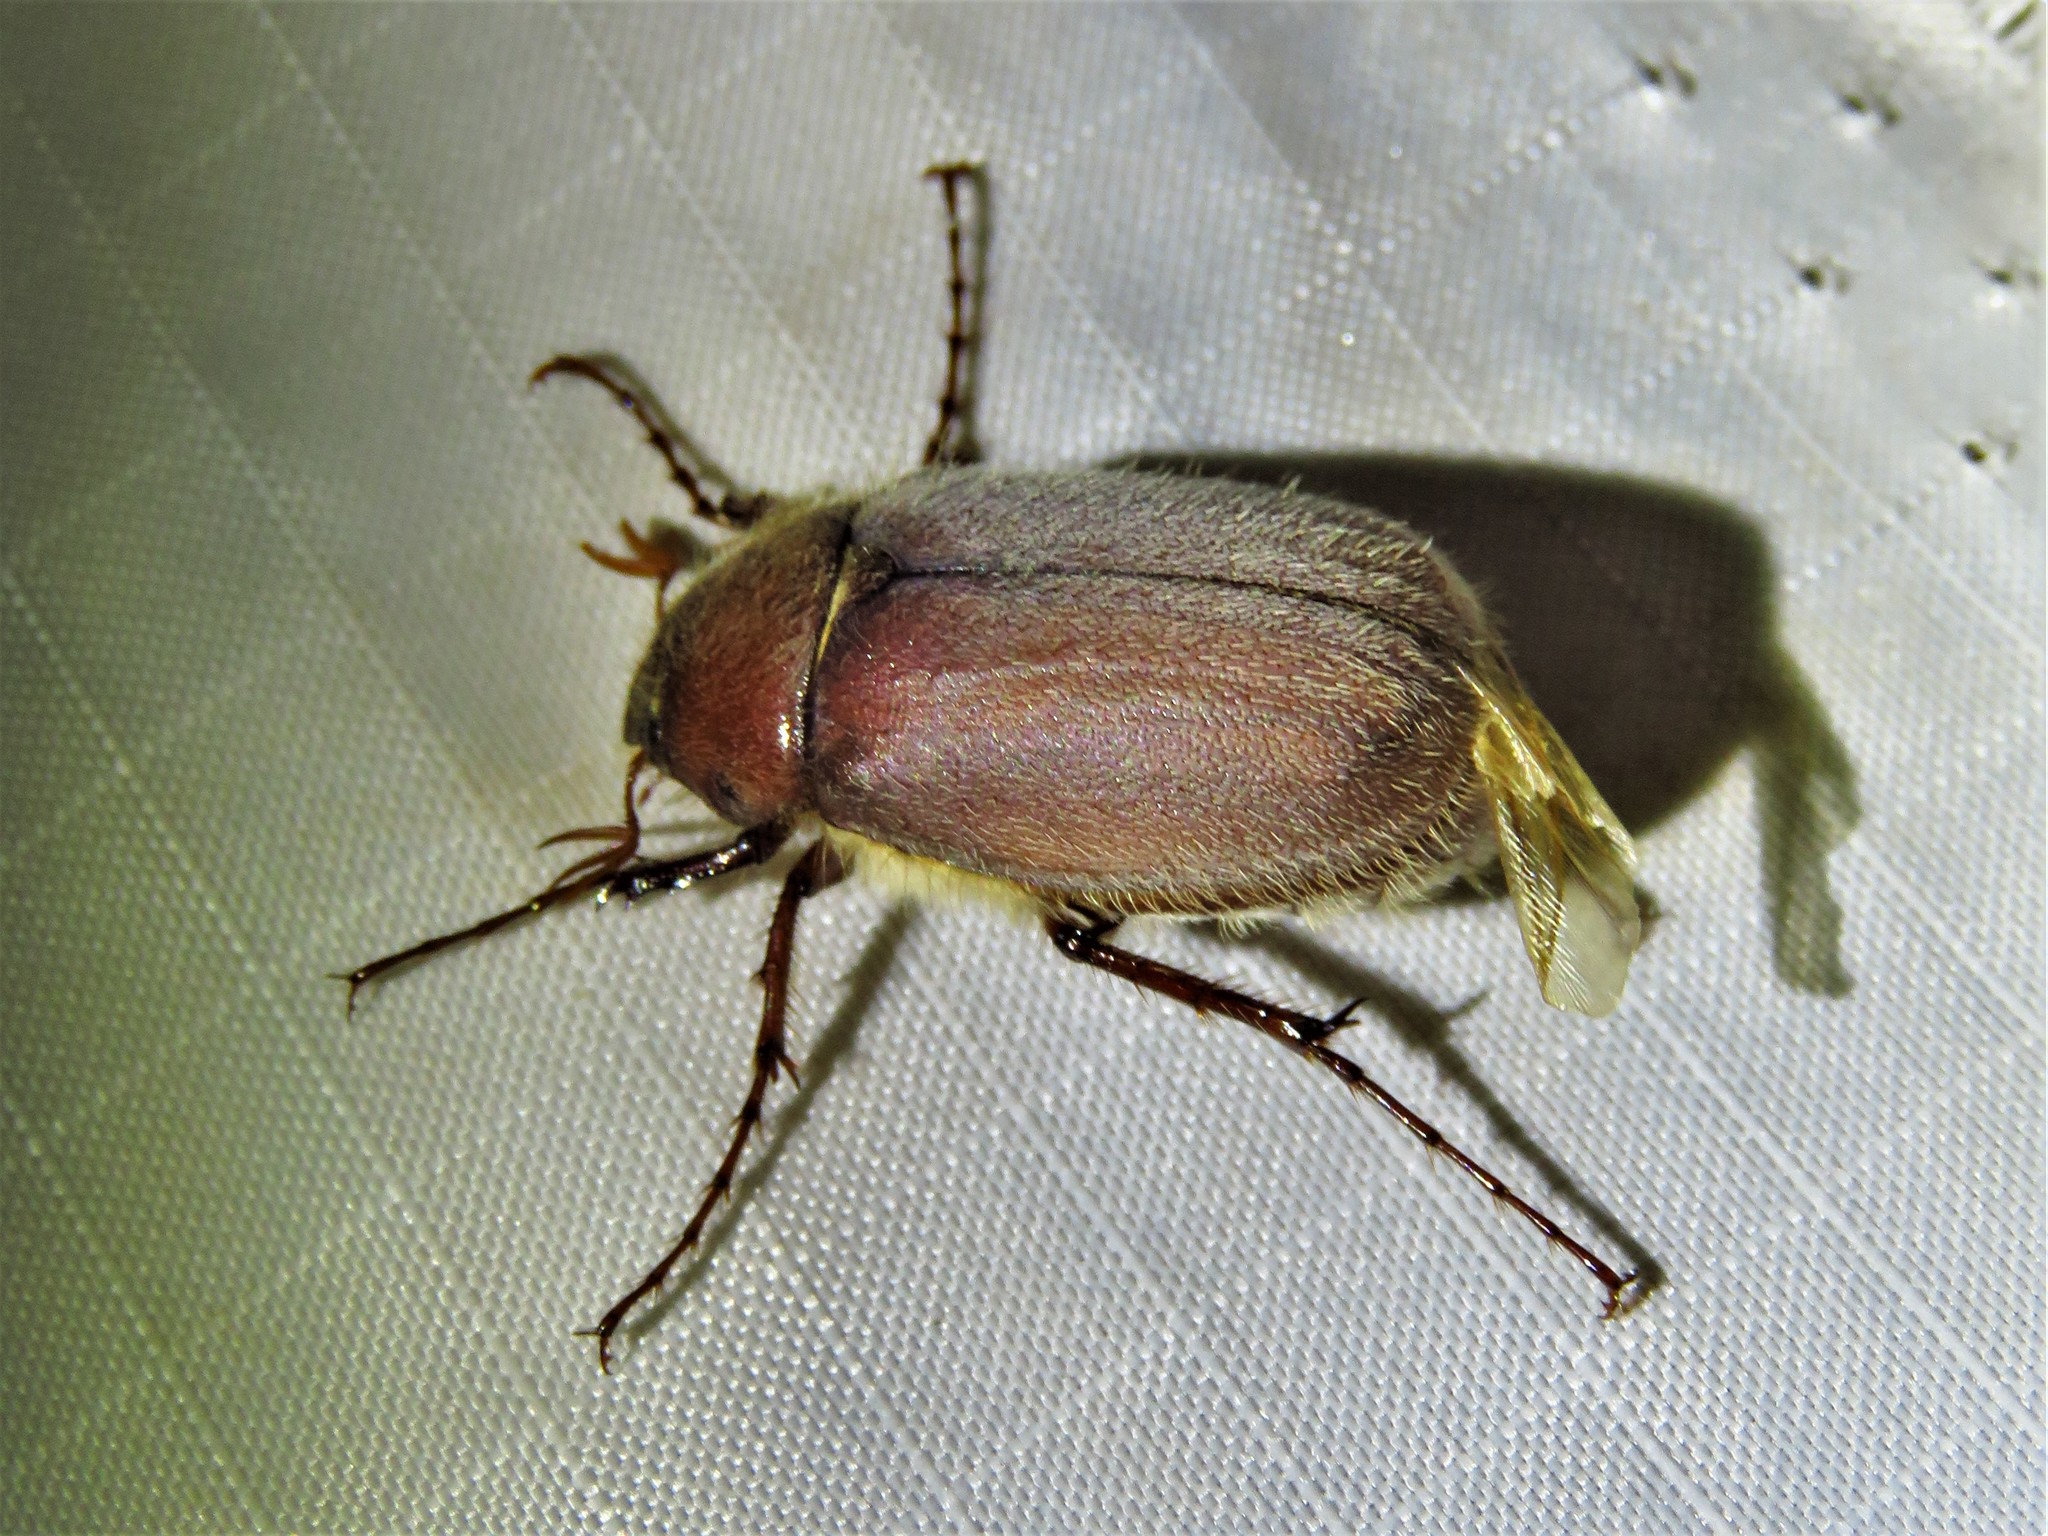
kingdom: Animalia
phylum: Arthropoda
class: Insecta
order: Coleoptera
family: Scarabaeidae
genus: Phyllophaga
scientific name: Phyllophaga rubiginosa
